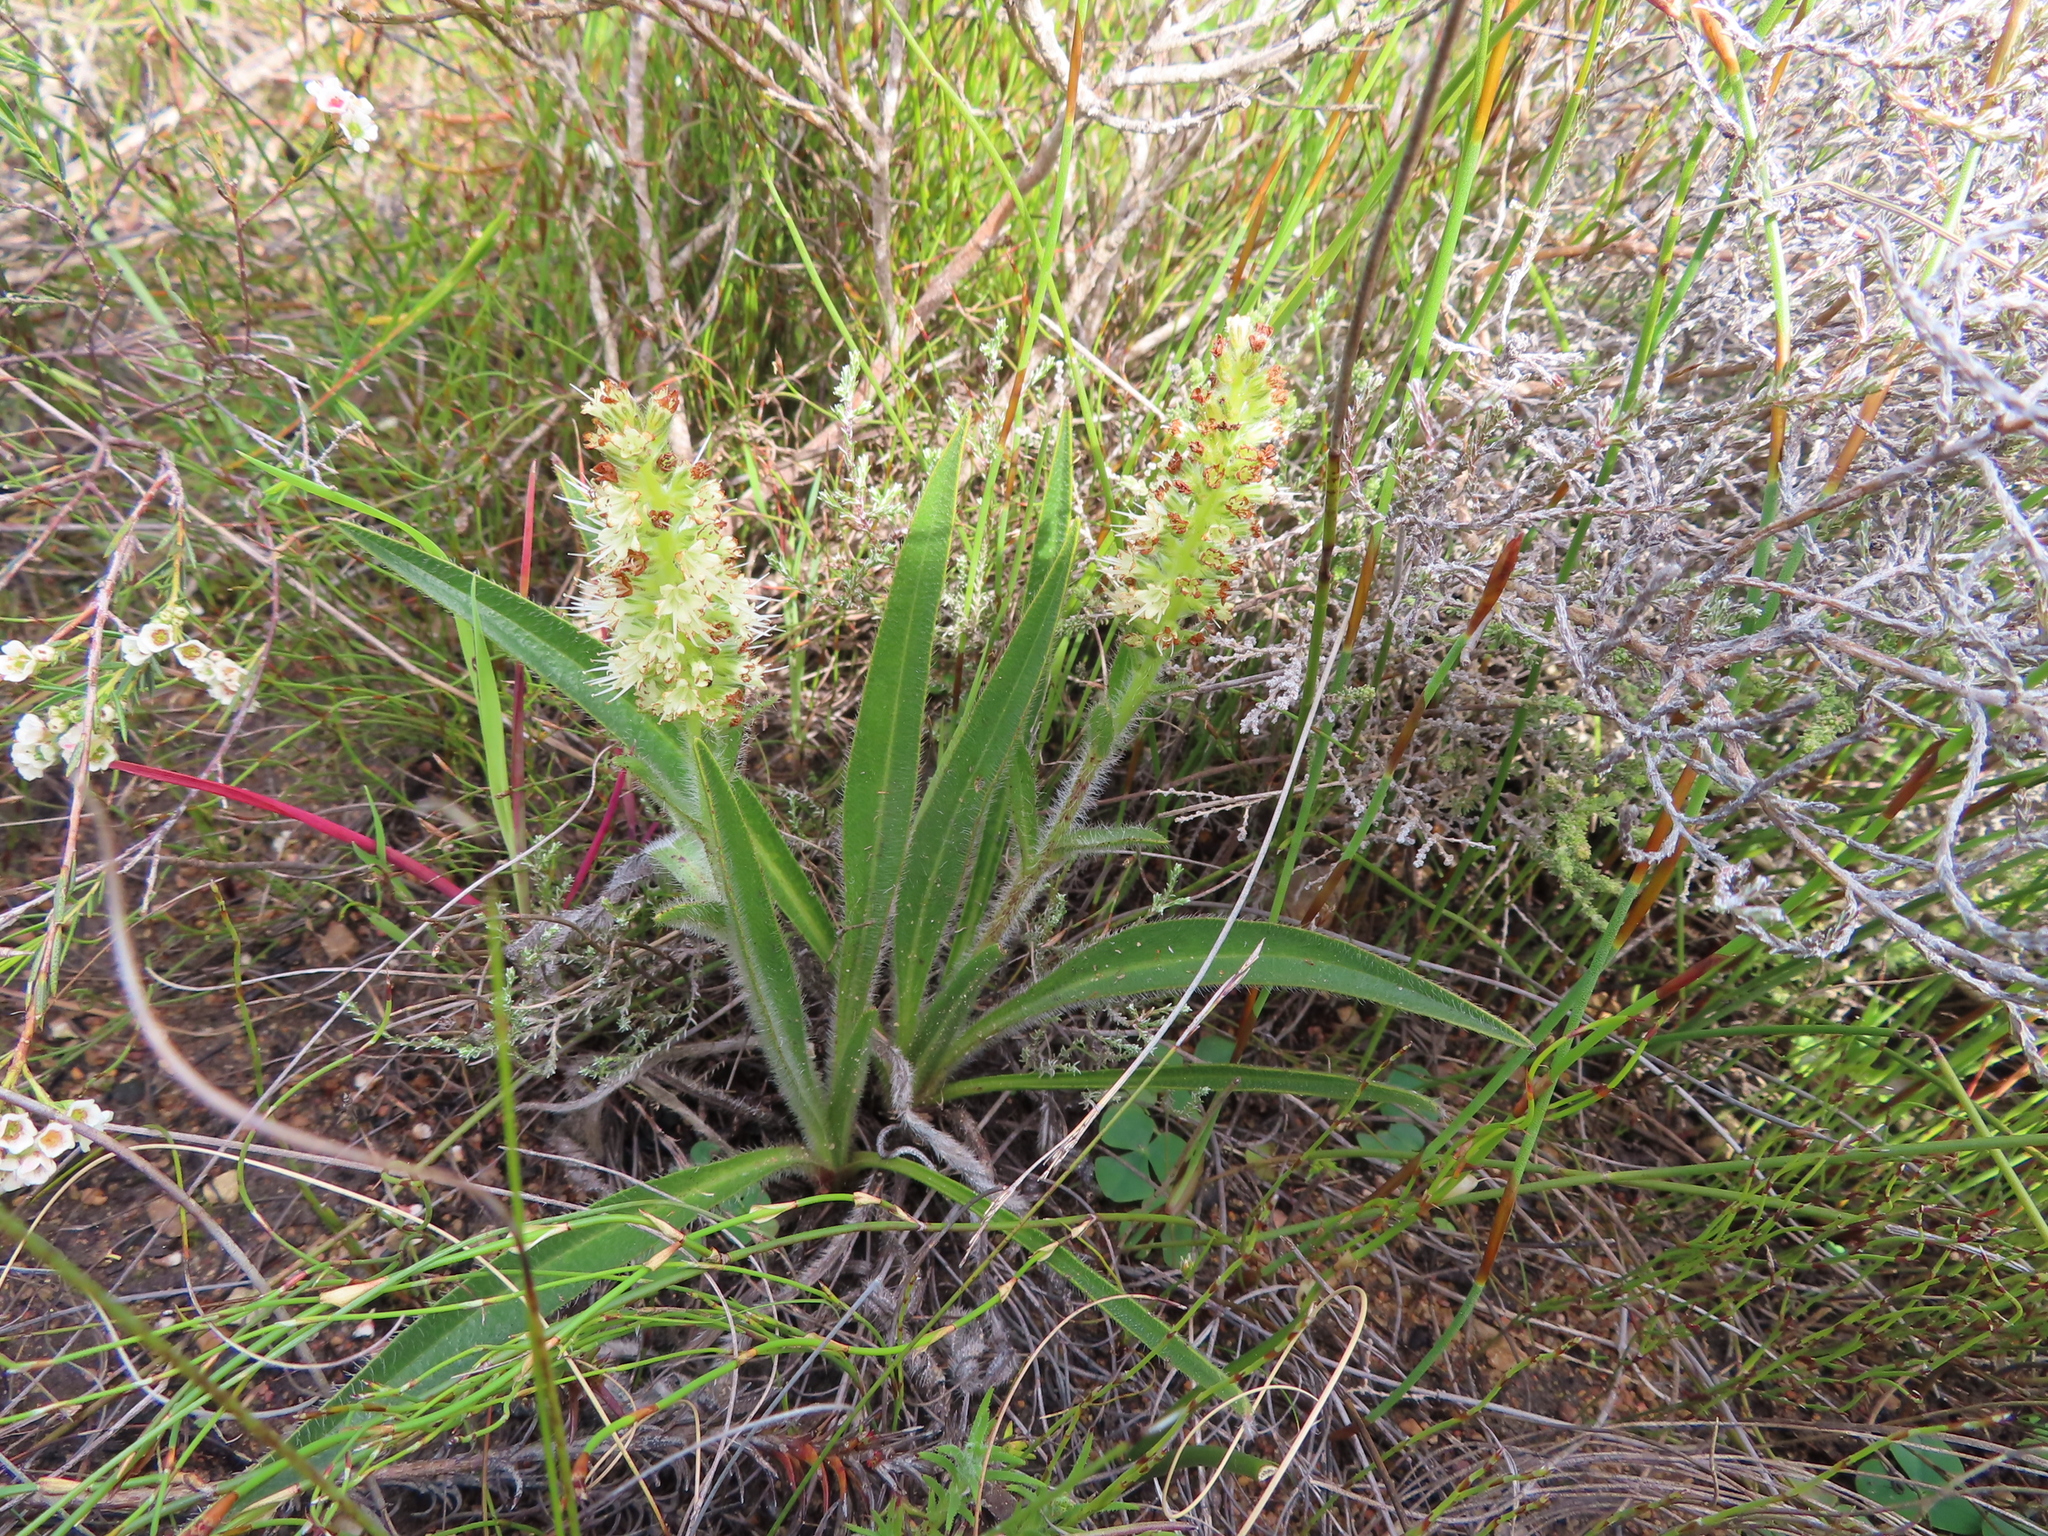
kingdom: Plantae
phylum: Tracheophyta
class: Magnoliopsida
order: Boraginales
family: Boraginaceae
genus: Lobostemon
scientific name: Lobostemon splendens
